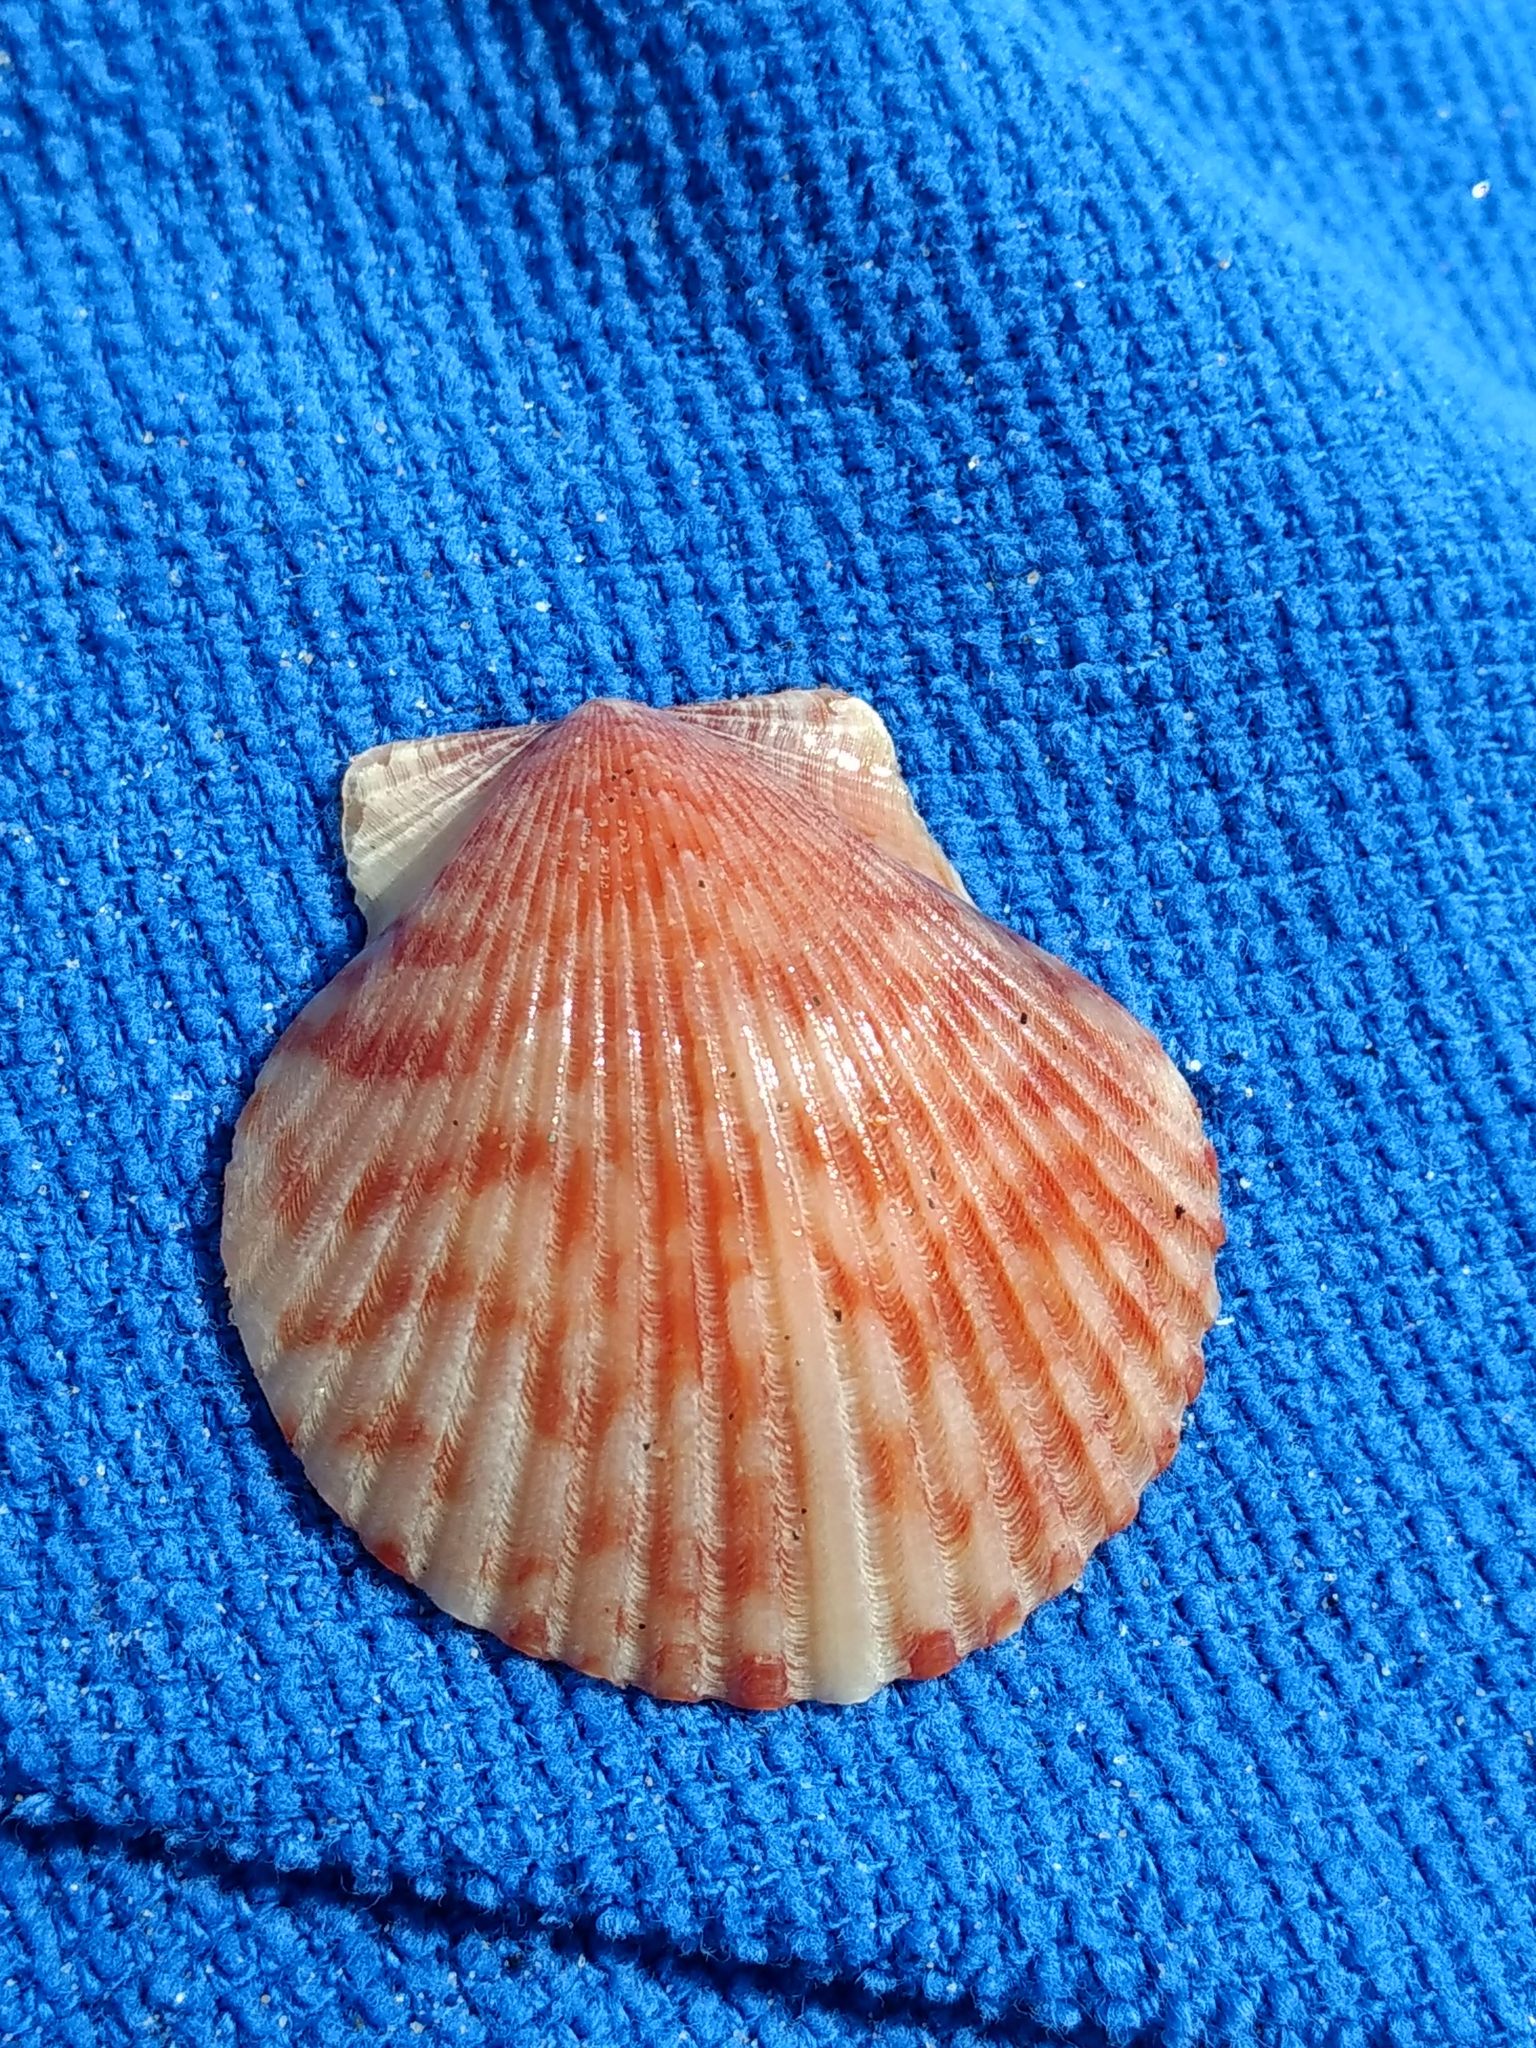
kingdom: Animalia
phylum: Mollusca
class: Bivalvia
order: Pectinida
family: Pectinidae
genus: Argopecten
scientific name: Argopecten ventricosus
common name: Catarina scallop
